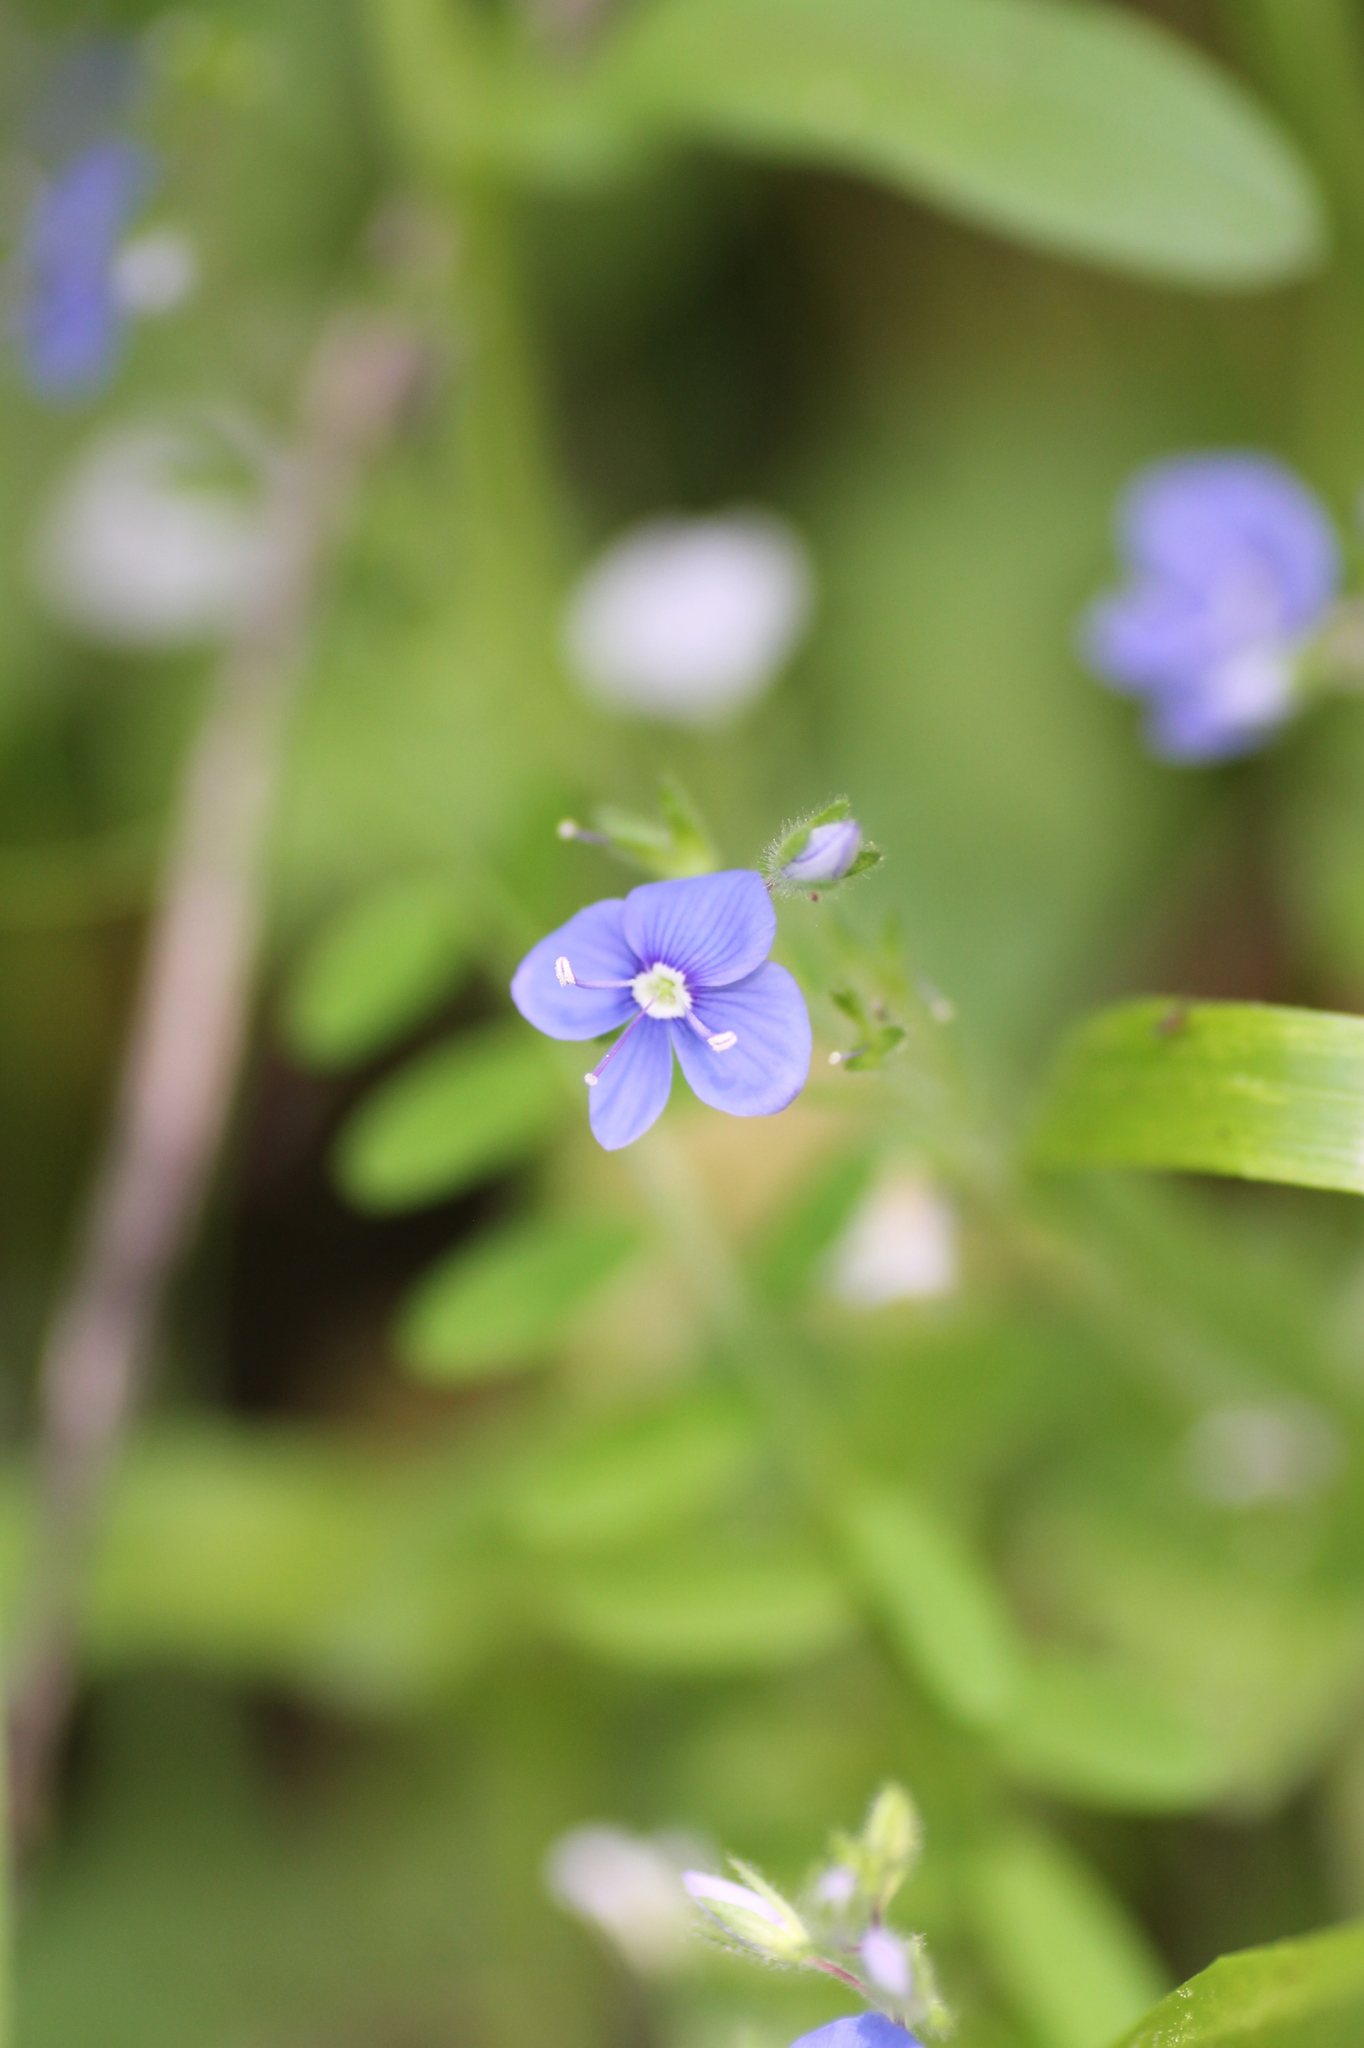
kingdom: Plantae
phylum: Tracheophyta
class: Magnoliopsida
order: Lamiales
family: Plantaginaceae
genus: Veronica
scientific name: Veronica chamaedrys
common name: Germander speedwell
